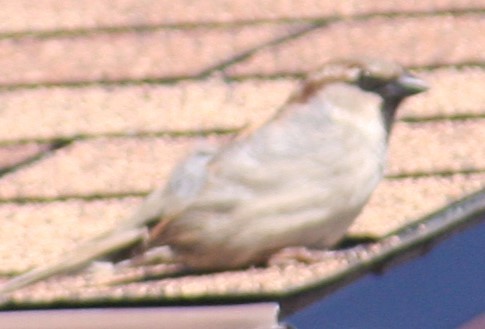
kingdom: Animalia
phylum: Chordata
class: Aves
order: Passeriformes
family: Passeridae
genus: Passer
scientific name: Passer domesticus
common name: House sparrow
